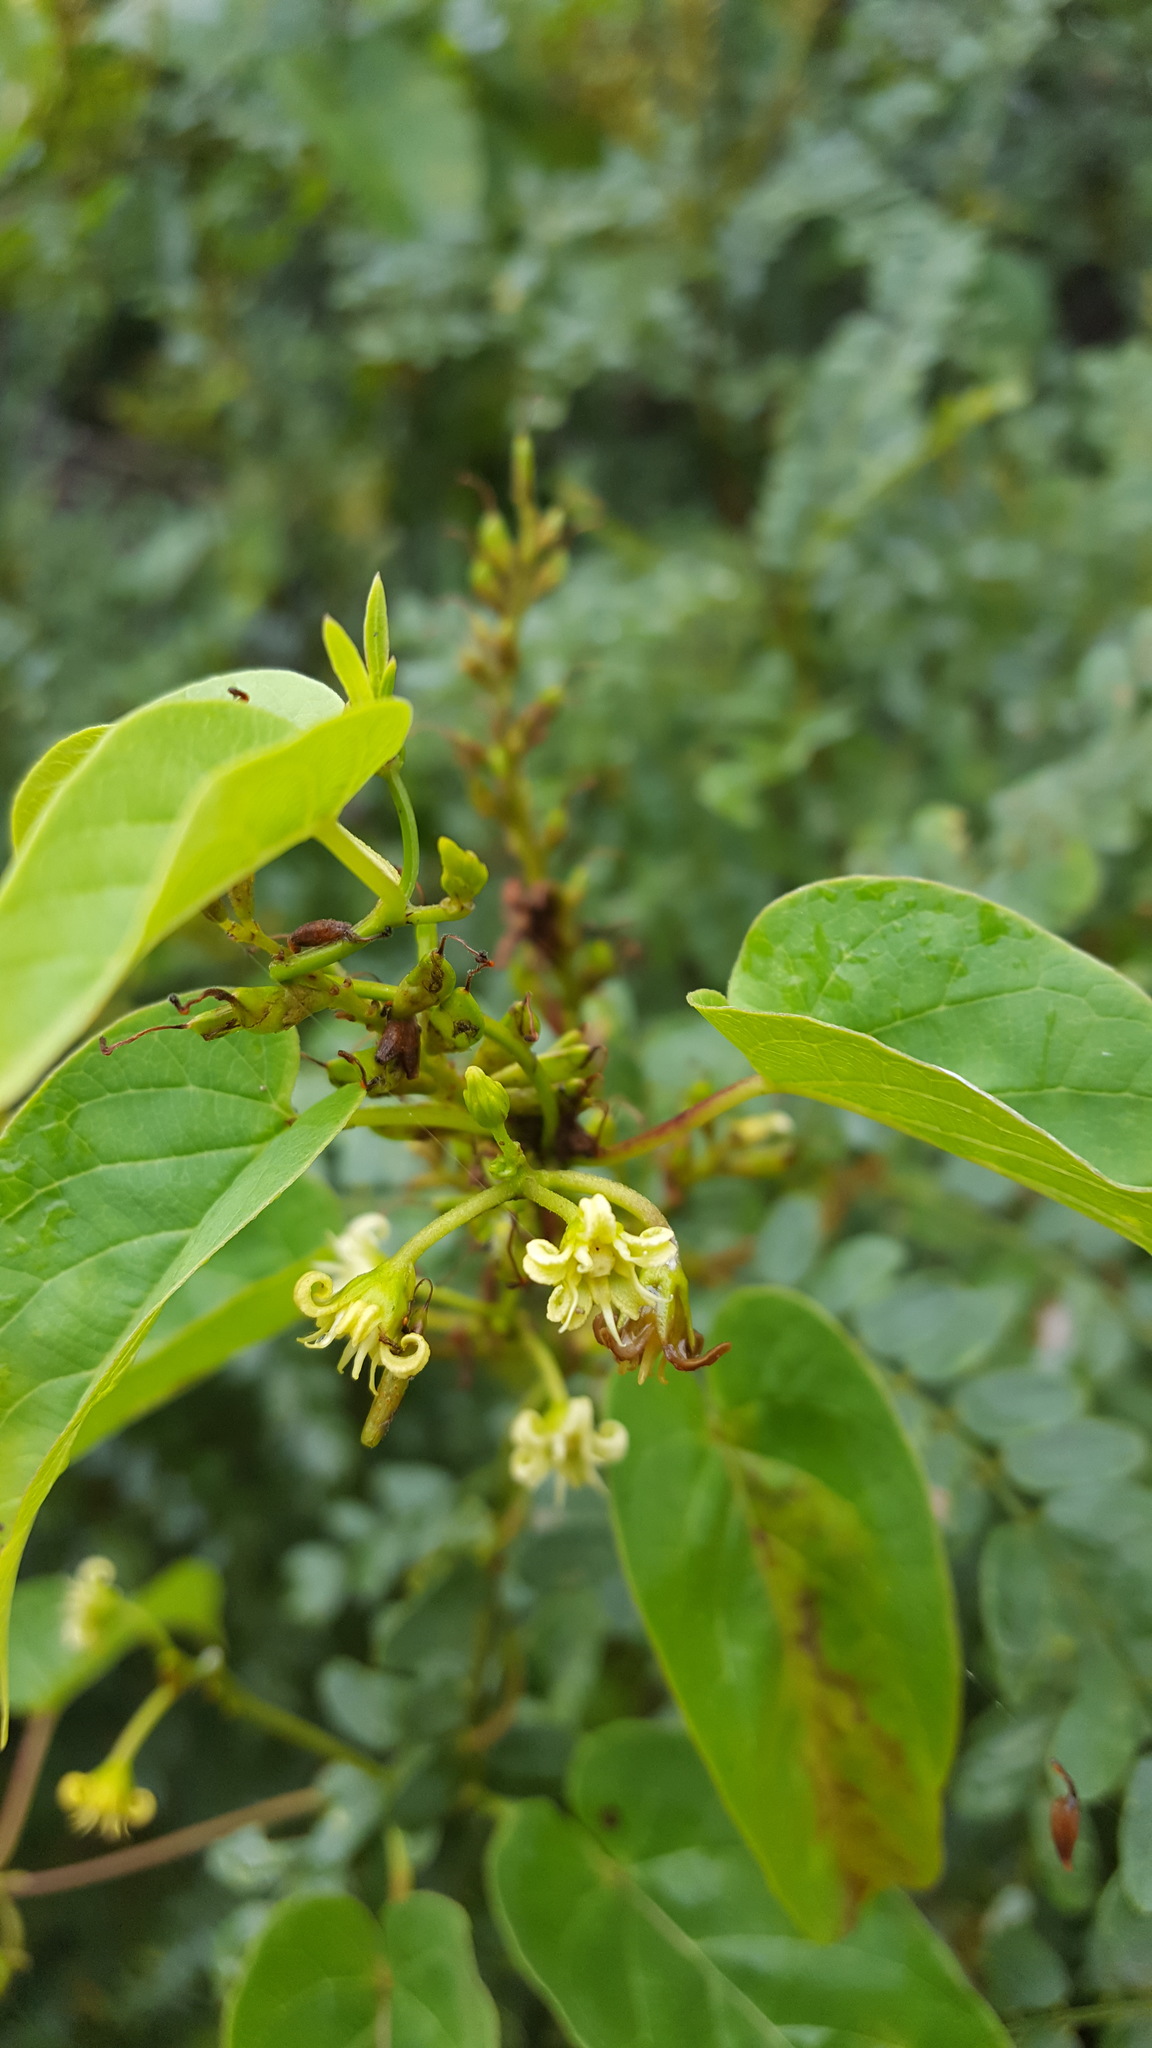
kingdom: Plantae
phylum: Tracheophyta
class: Magnoliopsida
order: Gentianales
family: Apocynaceae
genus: Cynanchum
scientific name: Cynanchum foetidum
